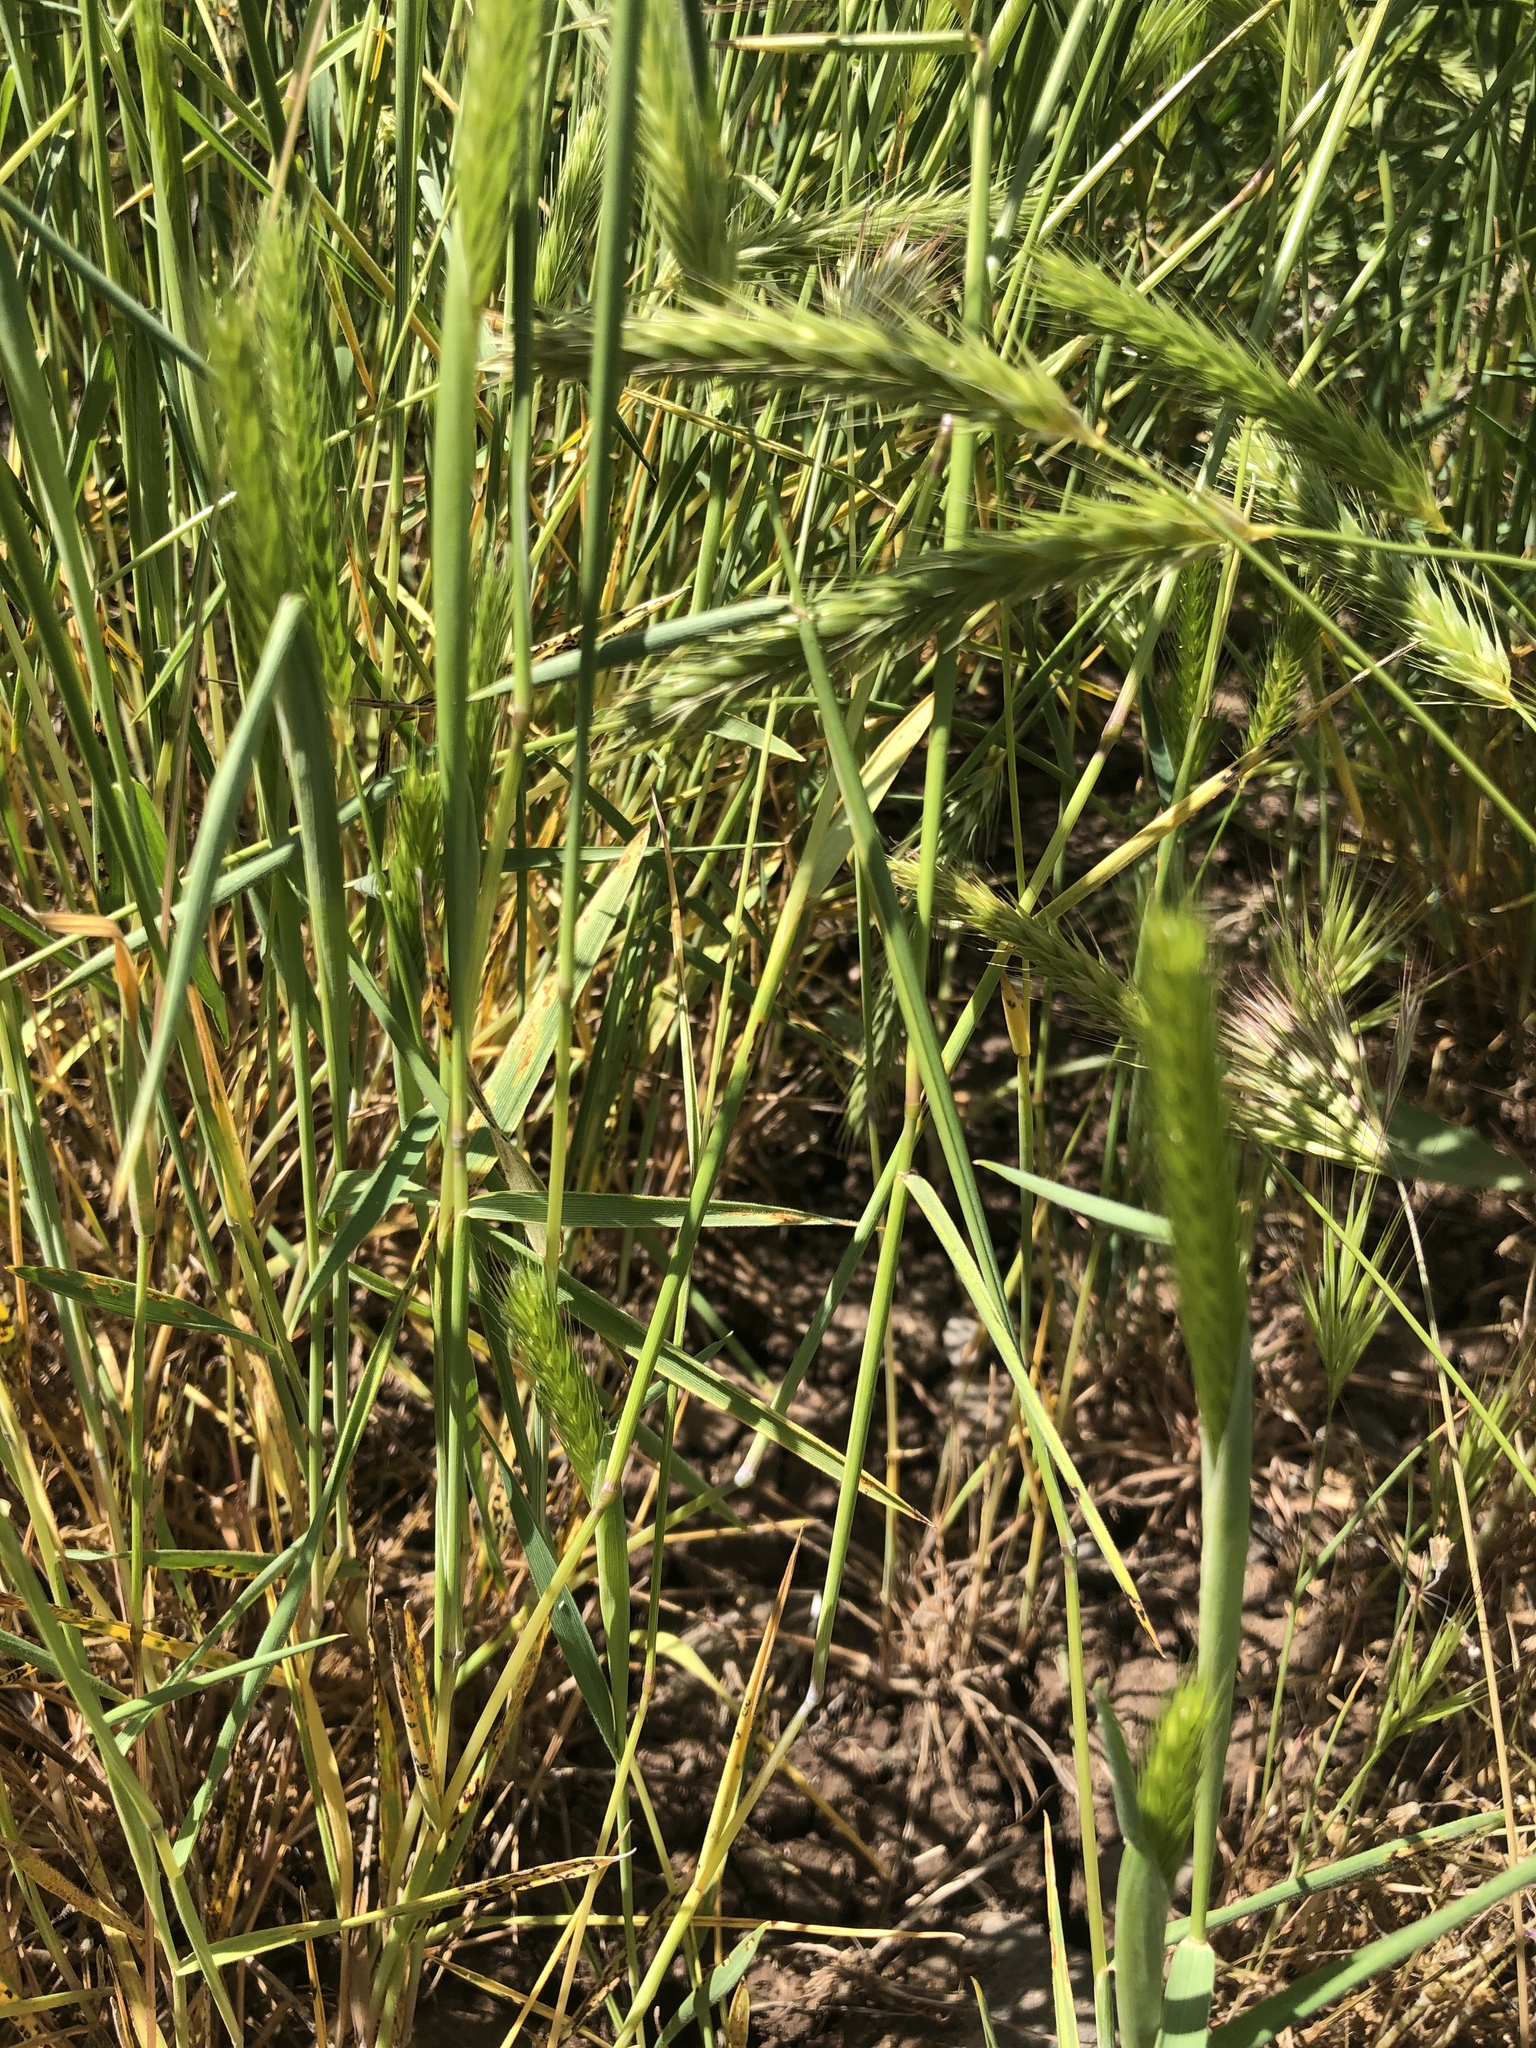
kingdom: Plantae
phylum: Tracheophyta
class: Liliopsida
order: Poales
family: Poaceae
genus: Hordeum
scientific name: Hordeum pusillum
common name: Little barley
